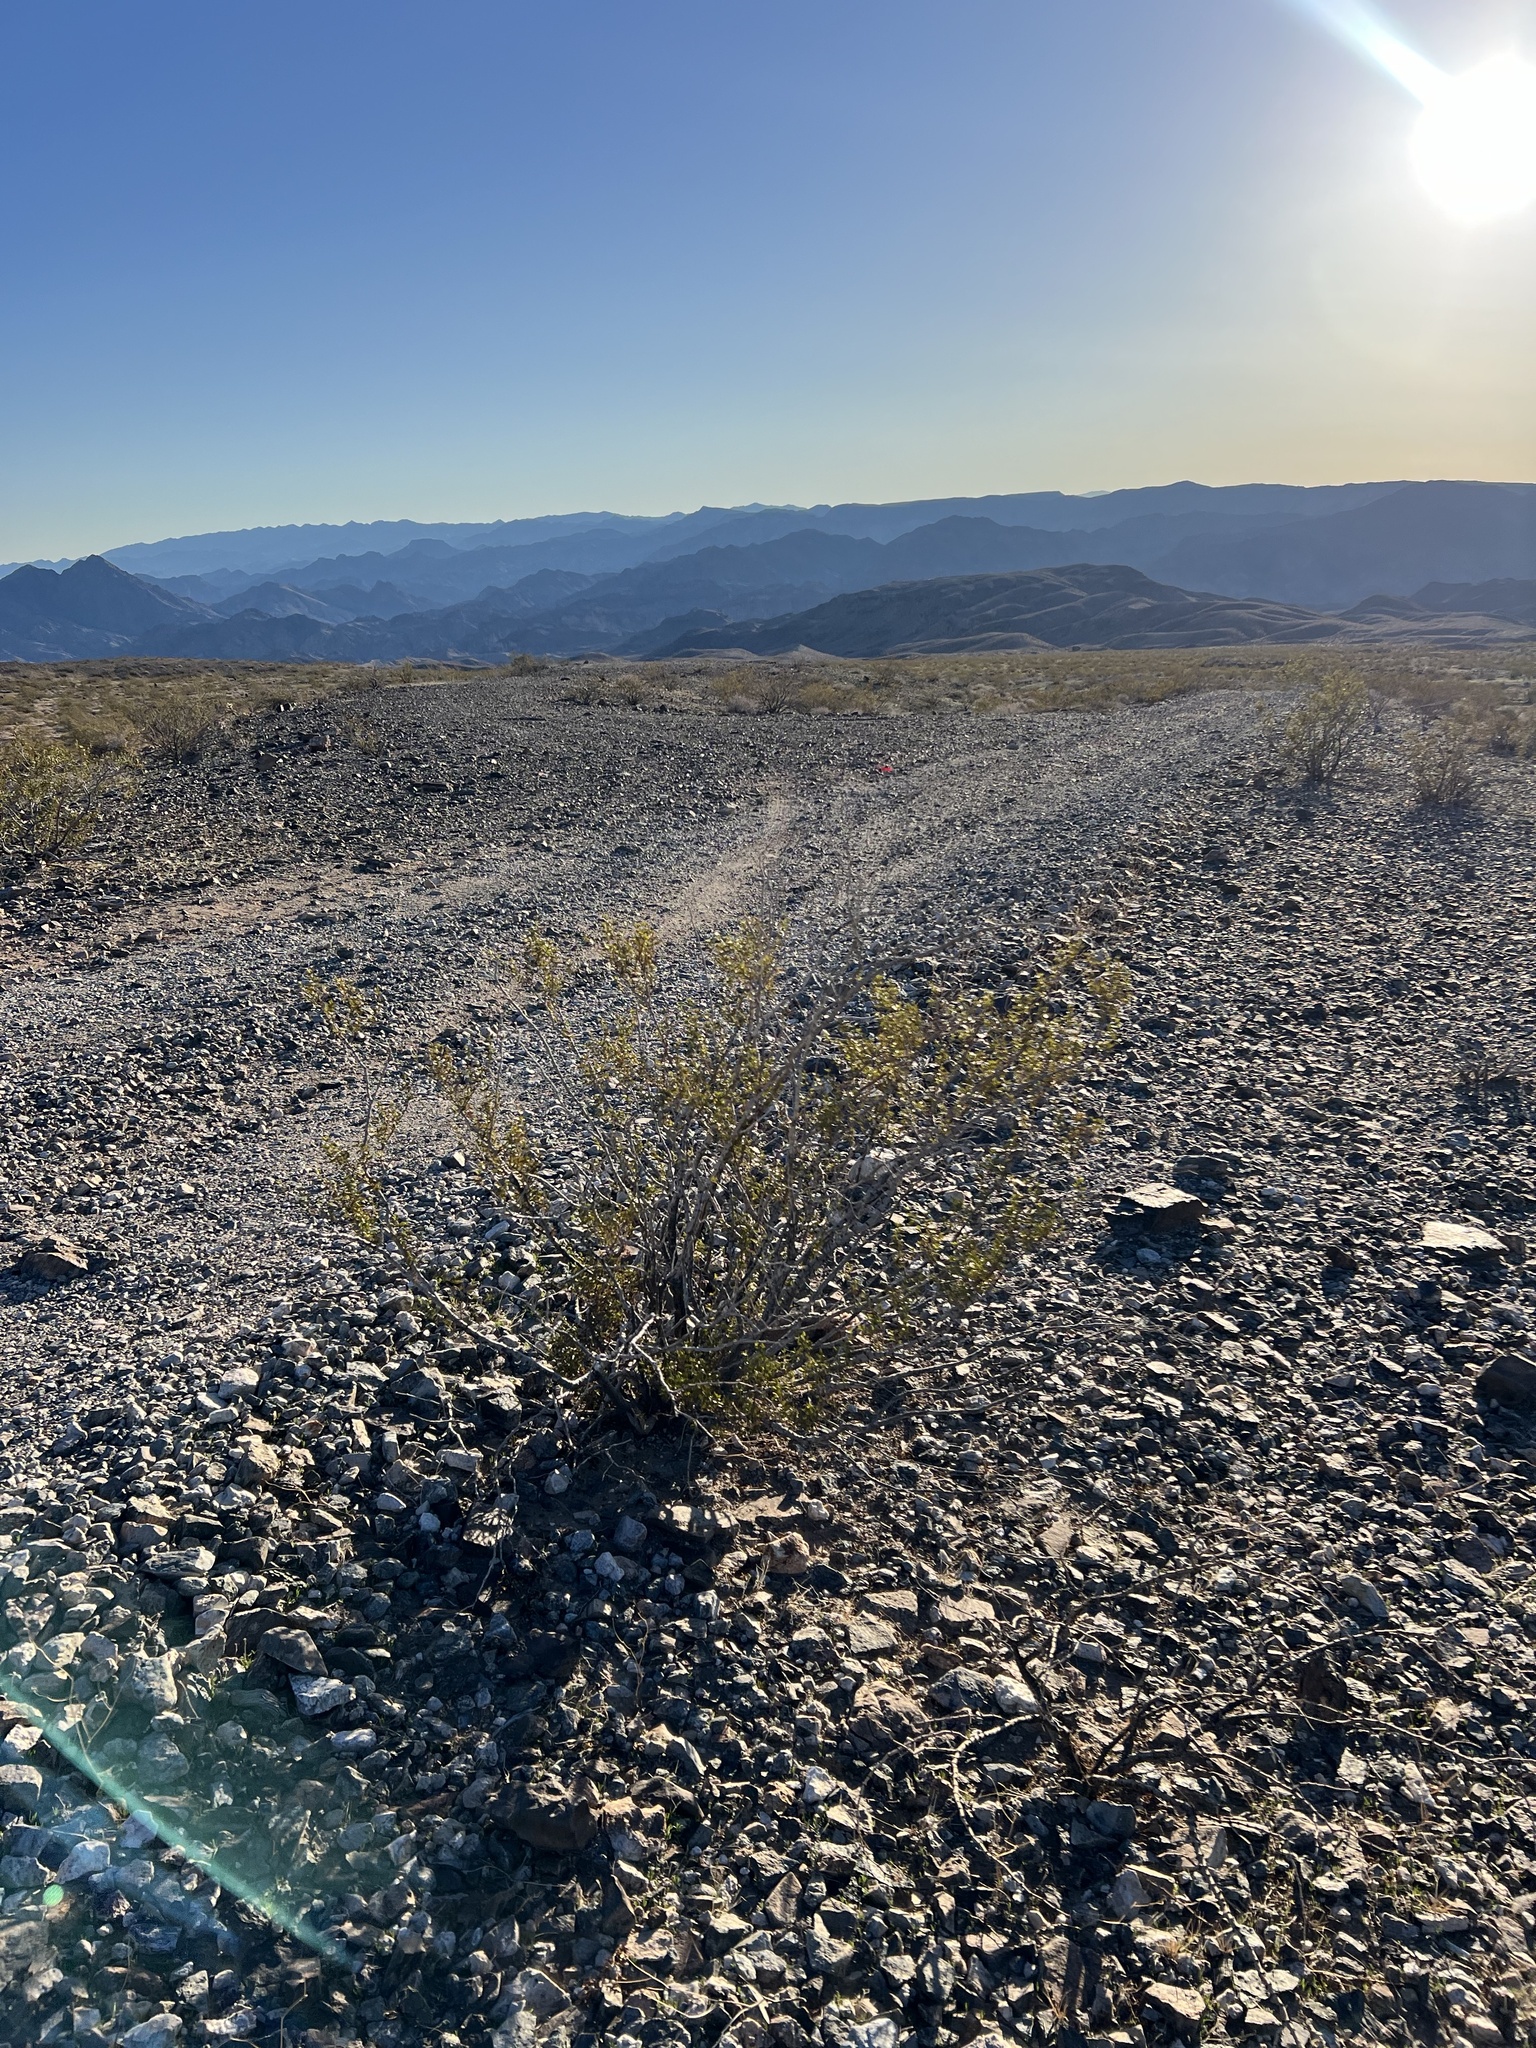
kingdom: Plantae
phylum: Tracheophyta
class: Magnoliopsida
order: Zygophyllales
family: Zygophyllaceae
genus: Larrea
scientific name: Larrea tridentata
